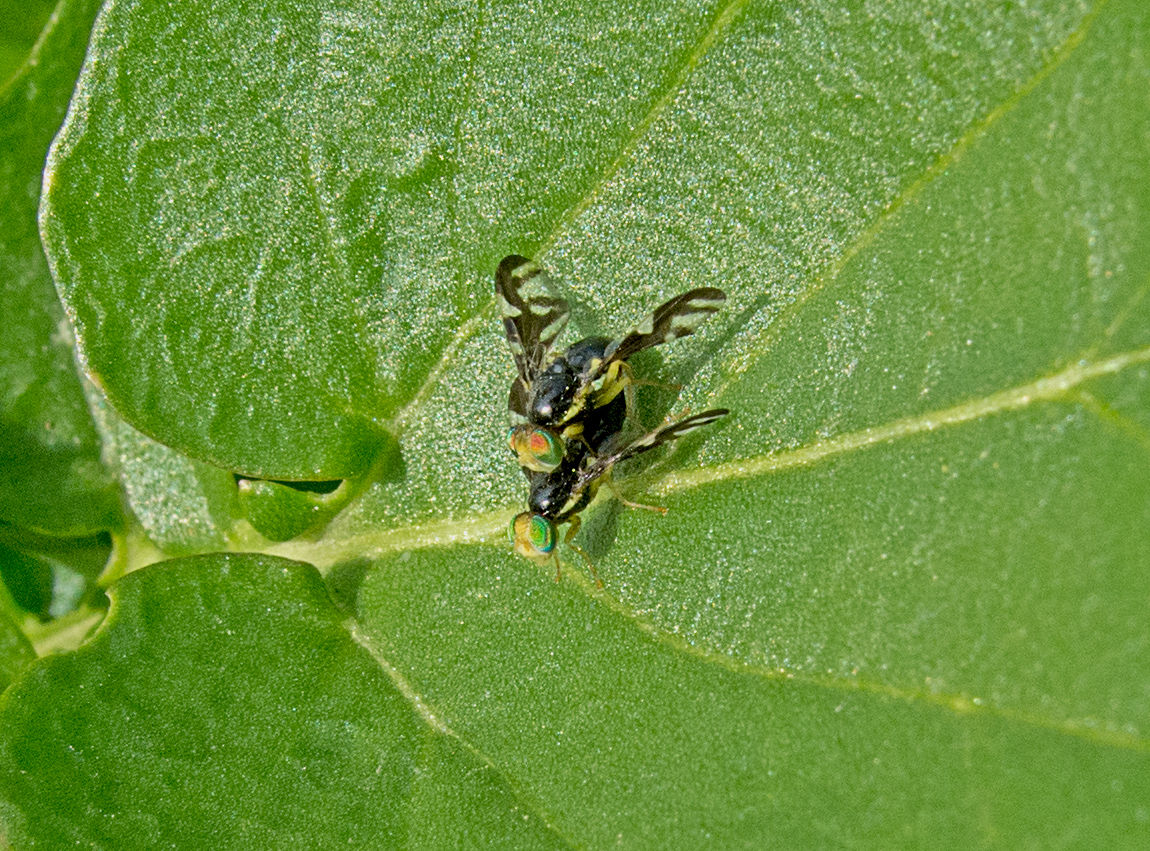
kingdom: Animalia
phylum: Arthropoda
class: Insecta
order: Diptera
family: Tephritidae
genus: Euleia
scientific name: Euleia heraclei
